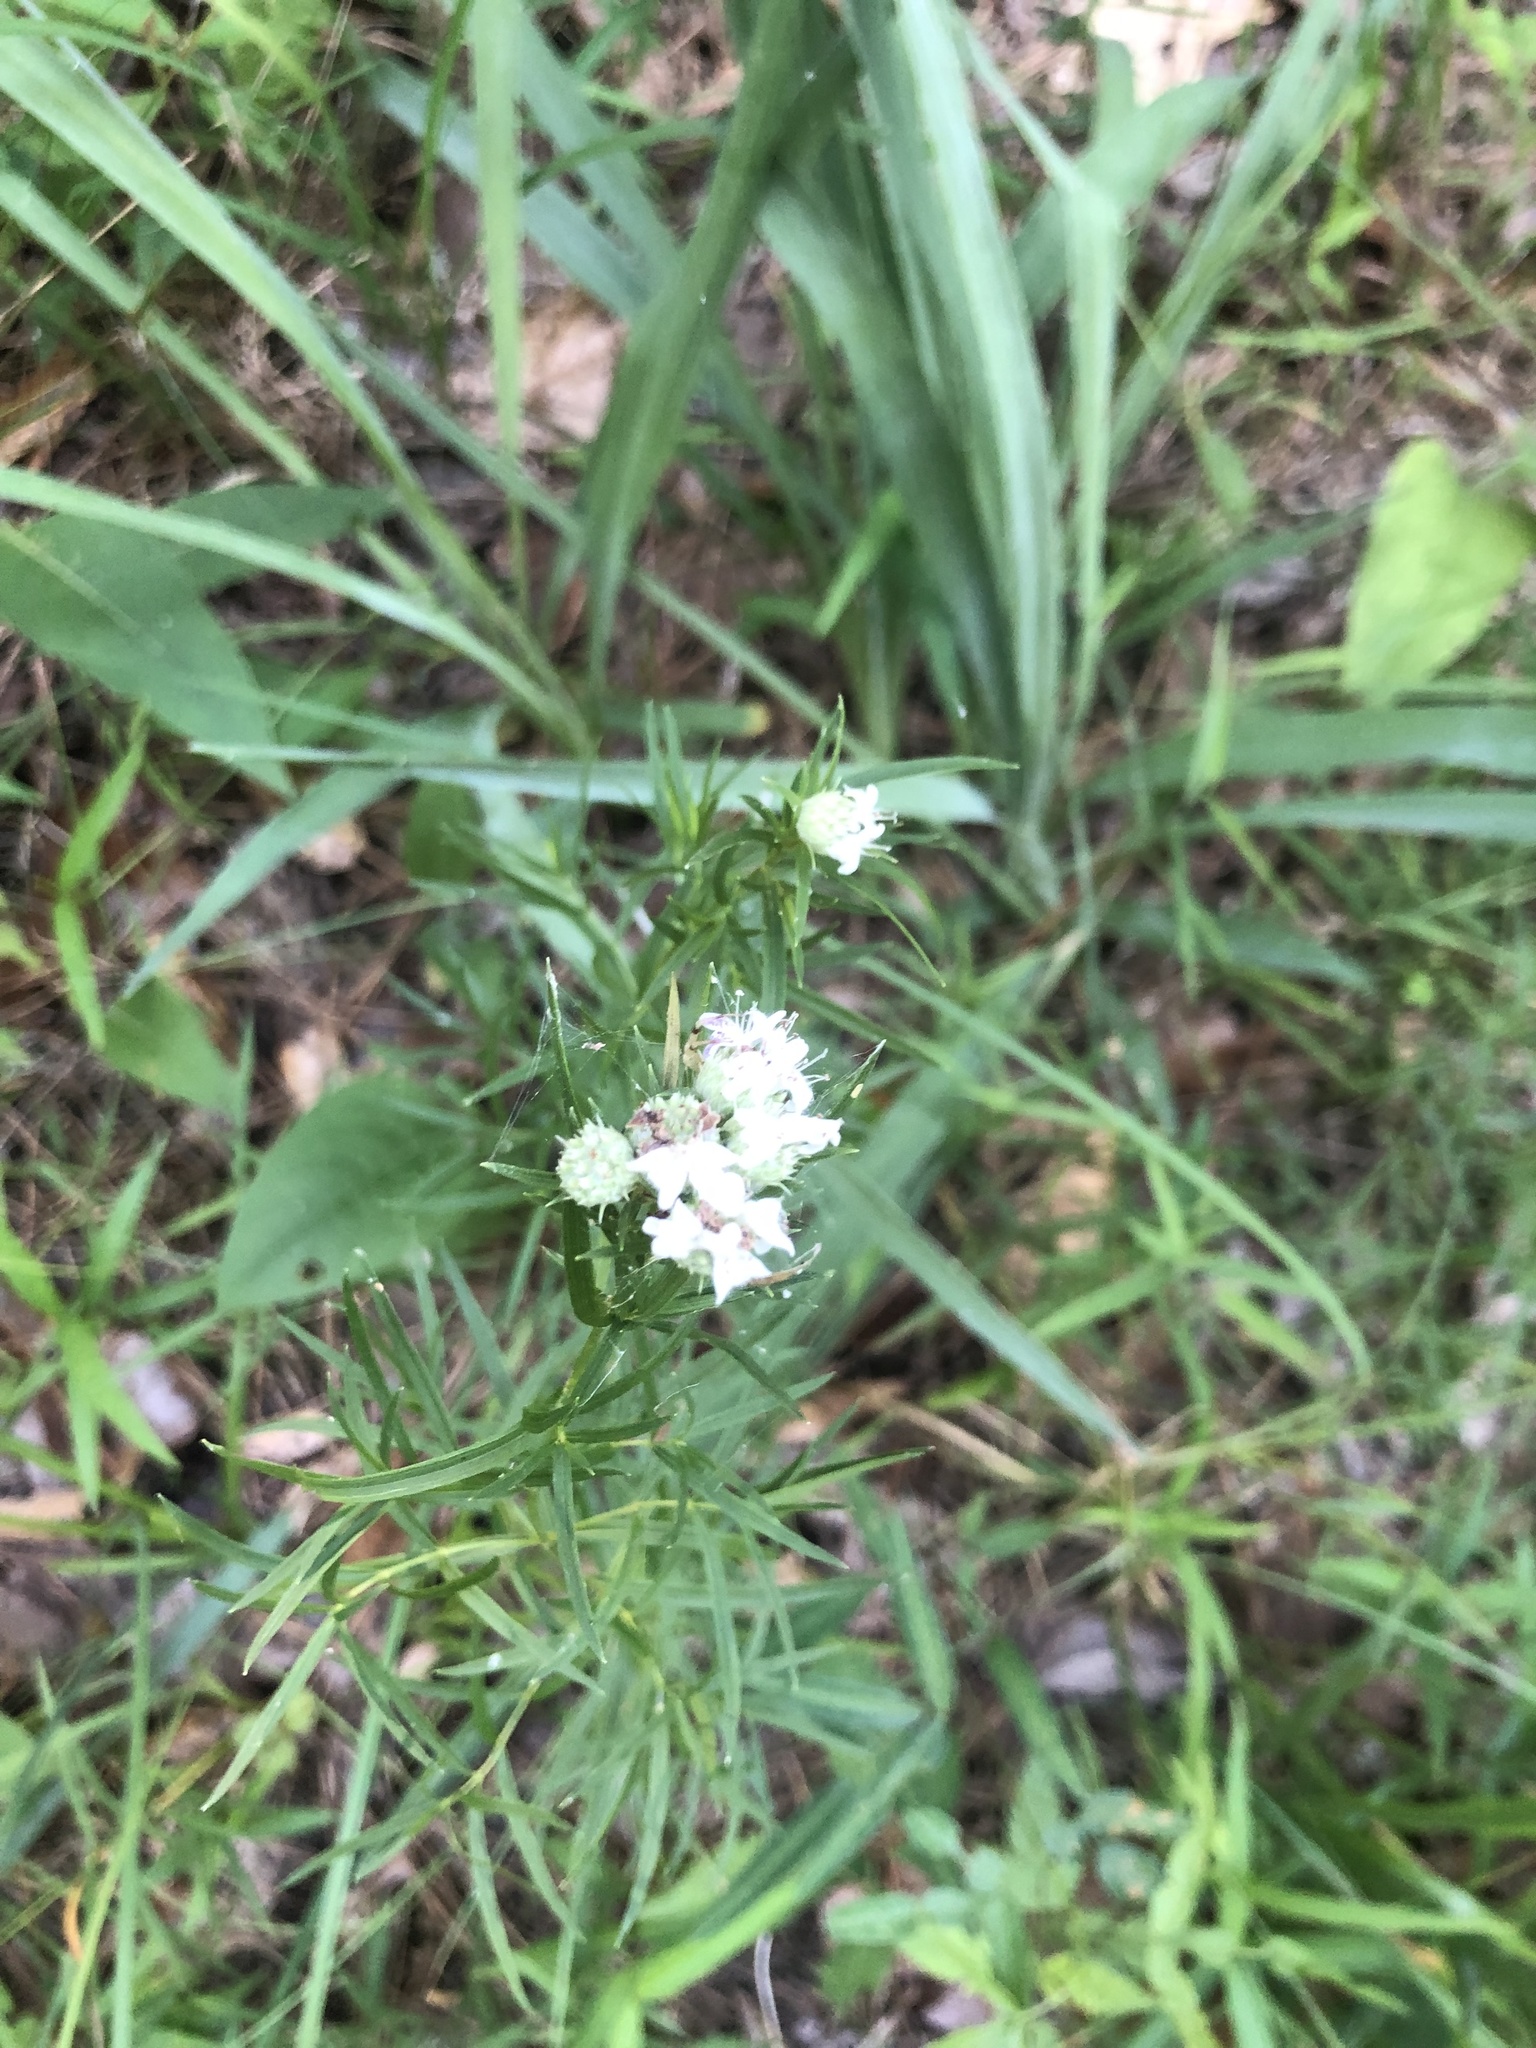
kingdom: Plantae
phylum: Tracheophyta
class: Magnoliopsida
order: Lamiales
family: Lamiaceae
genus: Pycnanthemum
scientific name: Pycnanthemum tenuifolium
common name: Narrow-leaf mountain-mint
